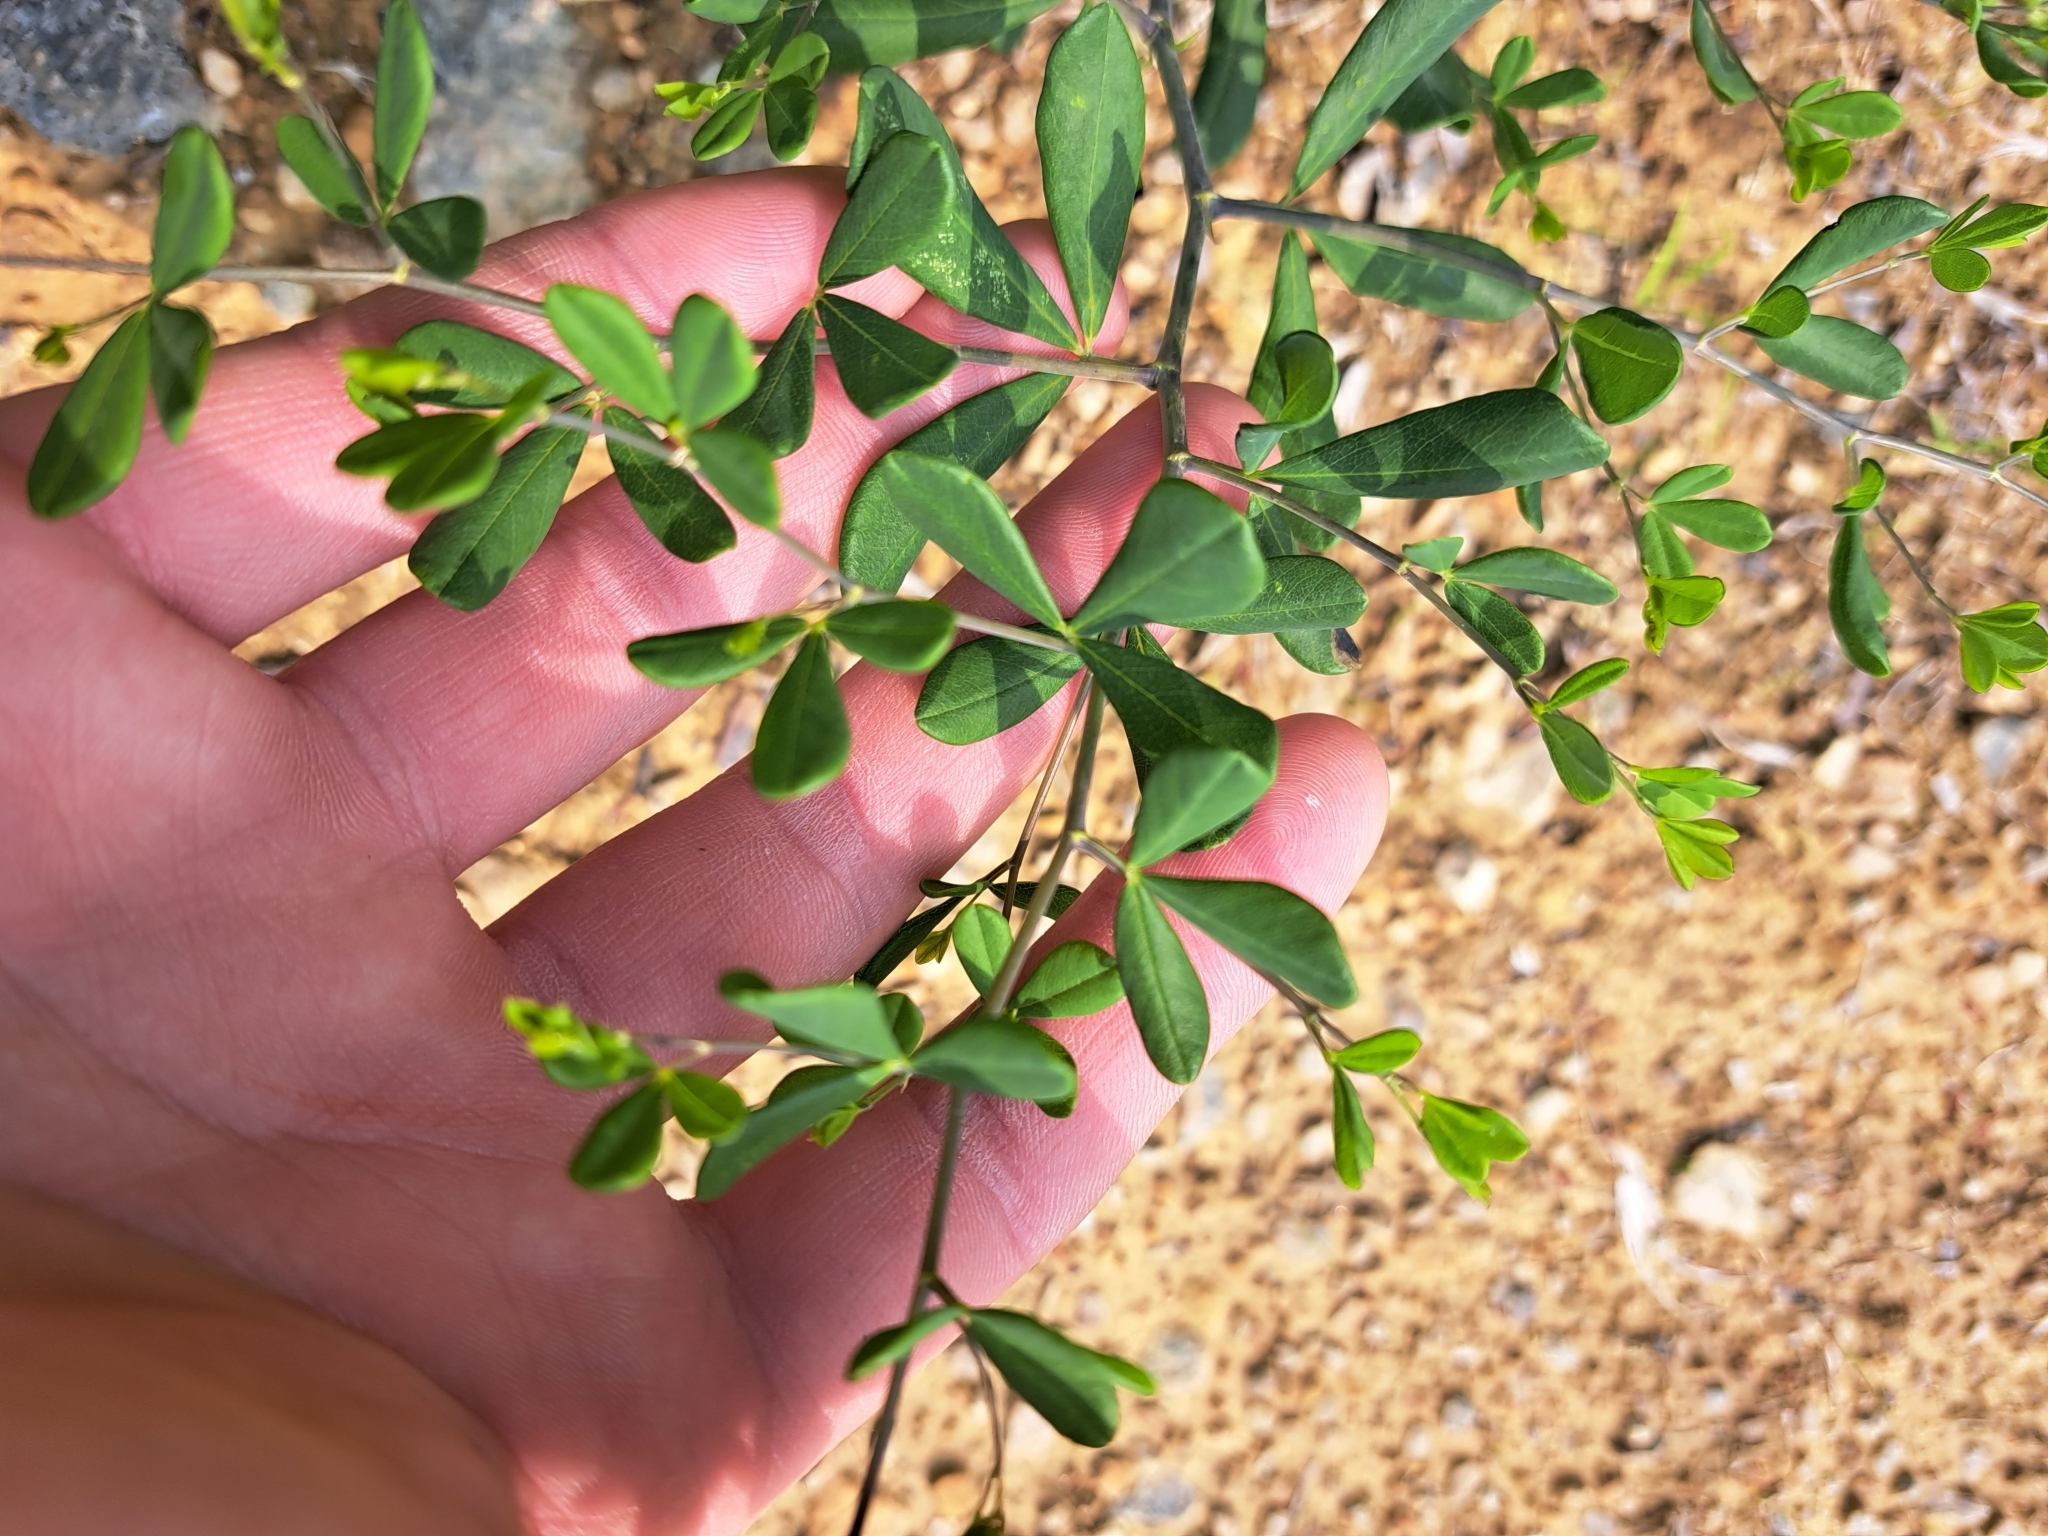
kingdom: Plantae
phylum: Tracheophyta
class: Magnoliopsida
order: Fabales
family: Fabaceae
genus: Baptisia
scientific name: Baptisia tinctoria
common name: Wild indigo
